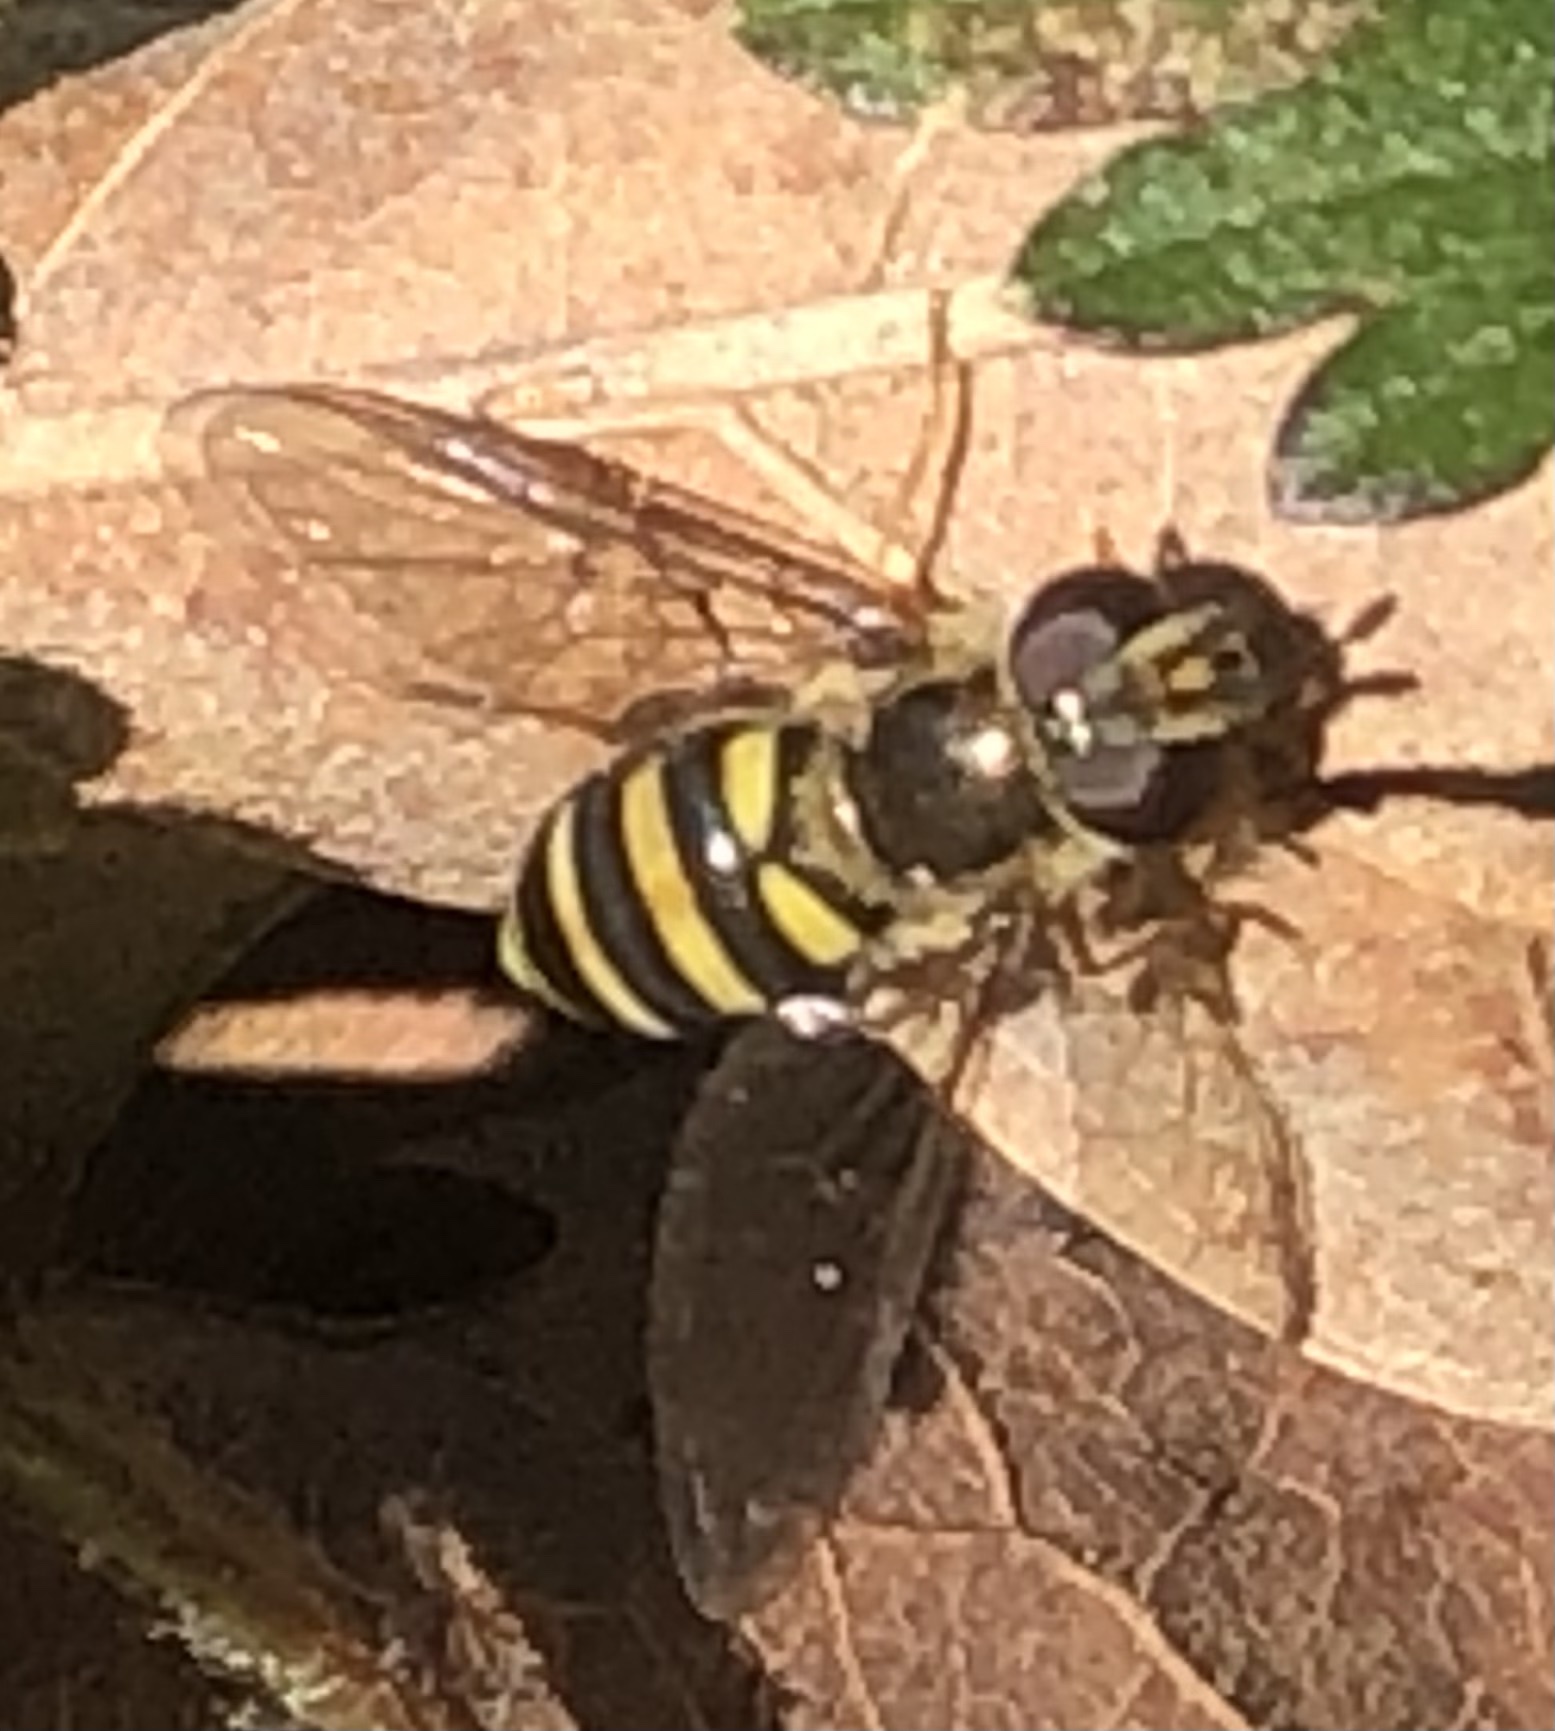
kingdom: Animalia
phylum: Arthropoda
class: Insecta
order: Diptera
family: Syrphidae
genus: Eupeodes
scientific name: Eupeodes
